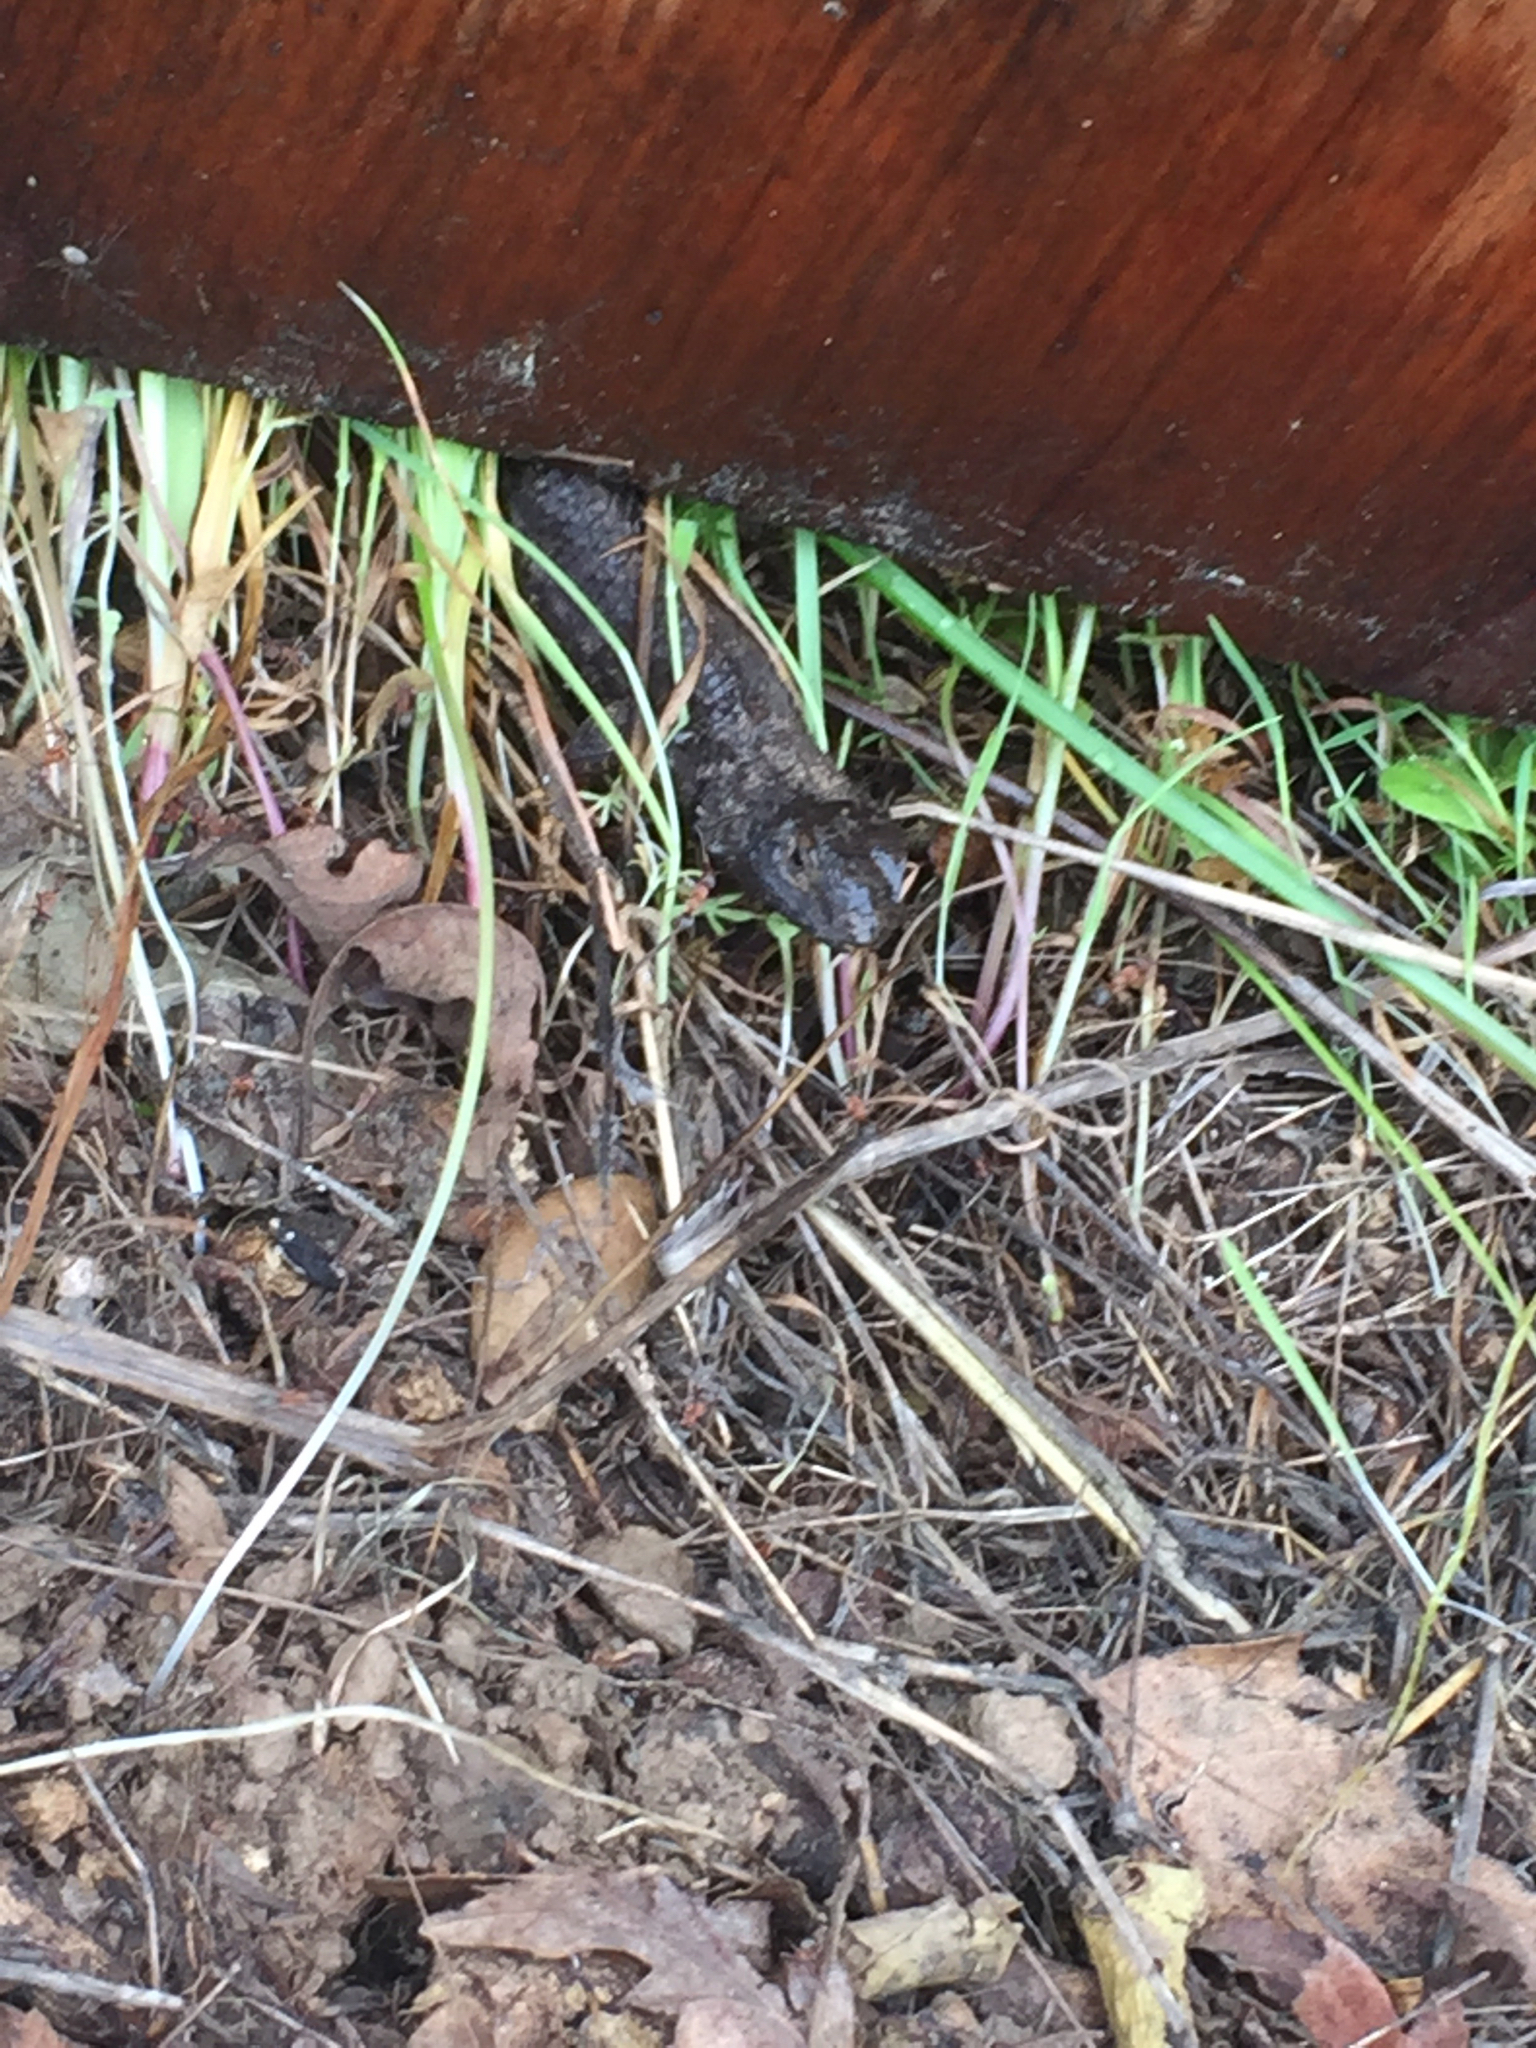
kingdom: Animalia
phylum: Chordata
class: Squamata
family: Phrynosomatidae
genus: Sceloporus
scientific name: Sceloporus occidentalis
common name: Western fence lizard
